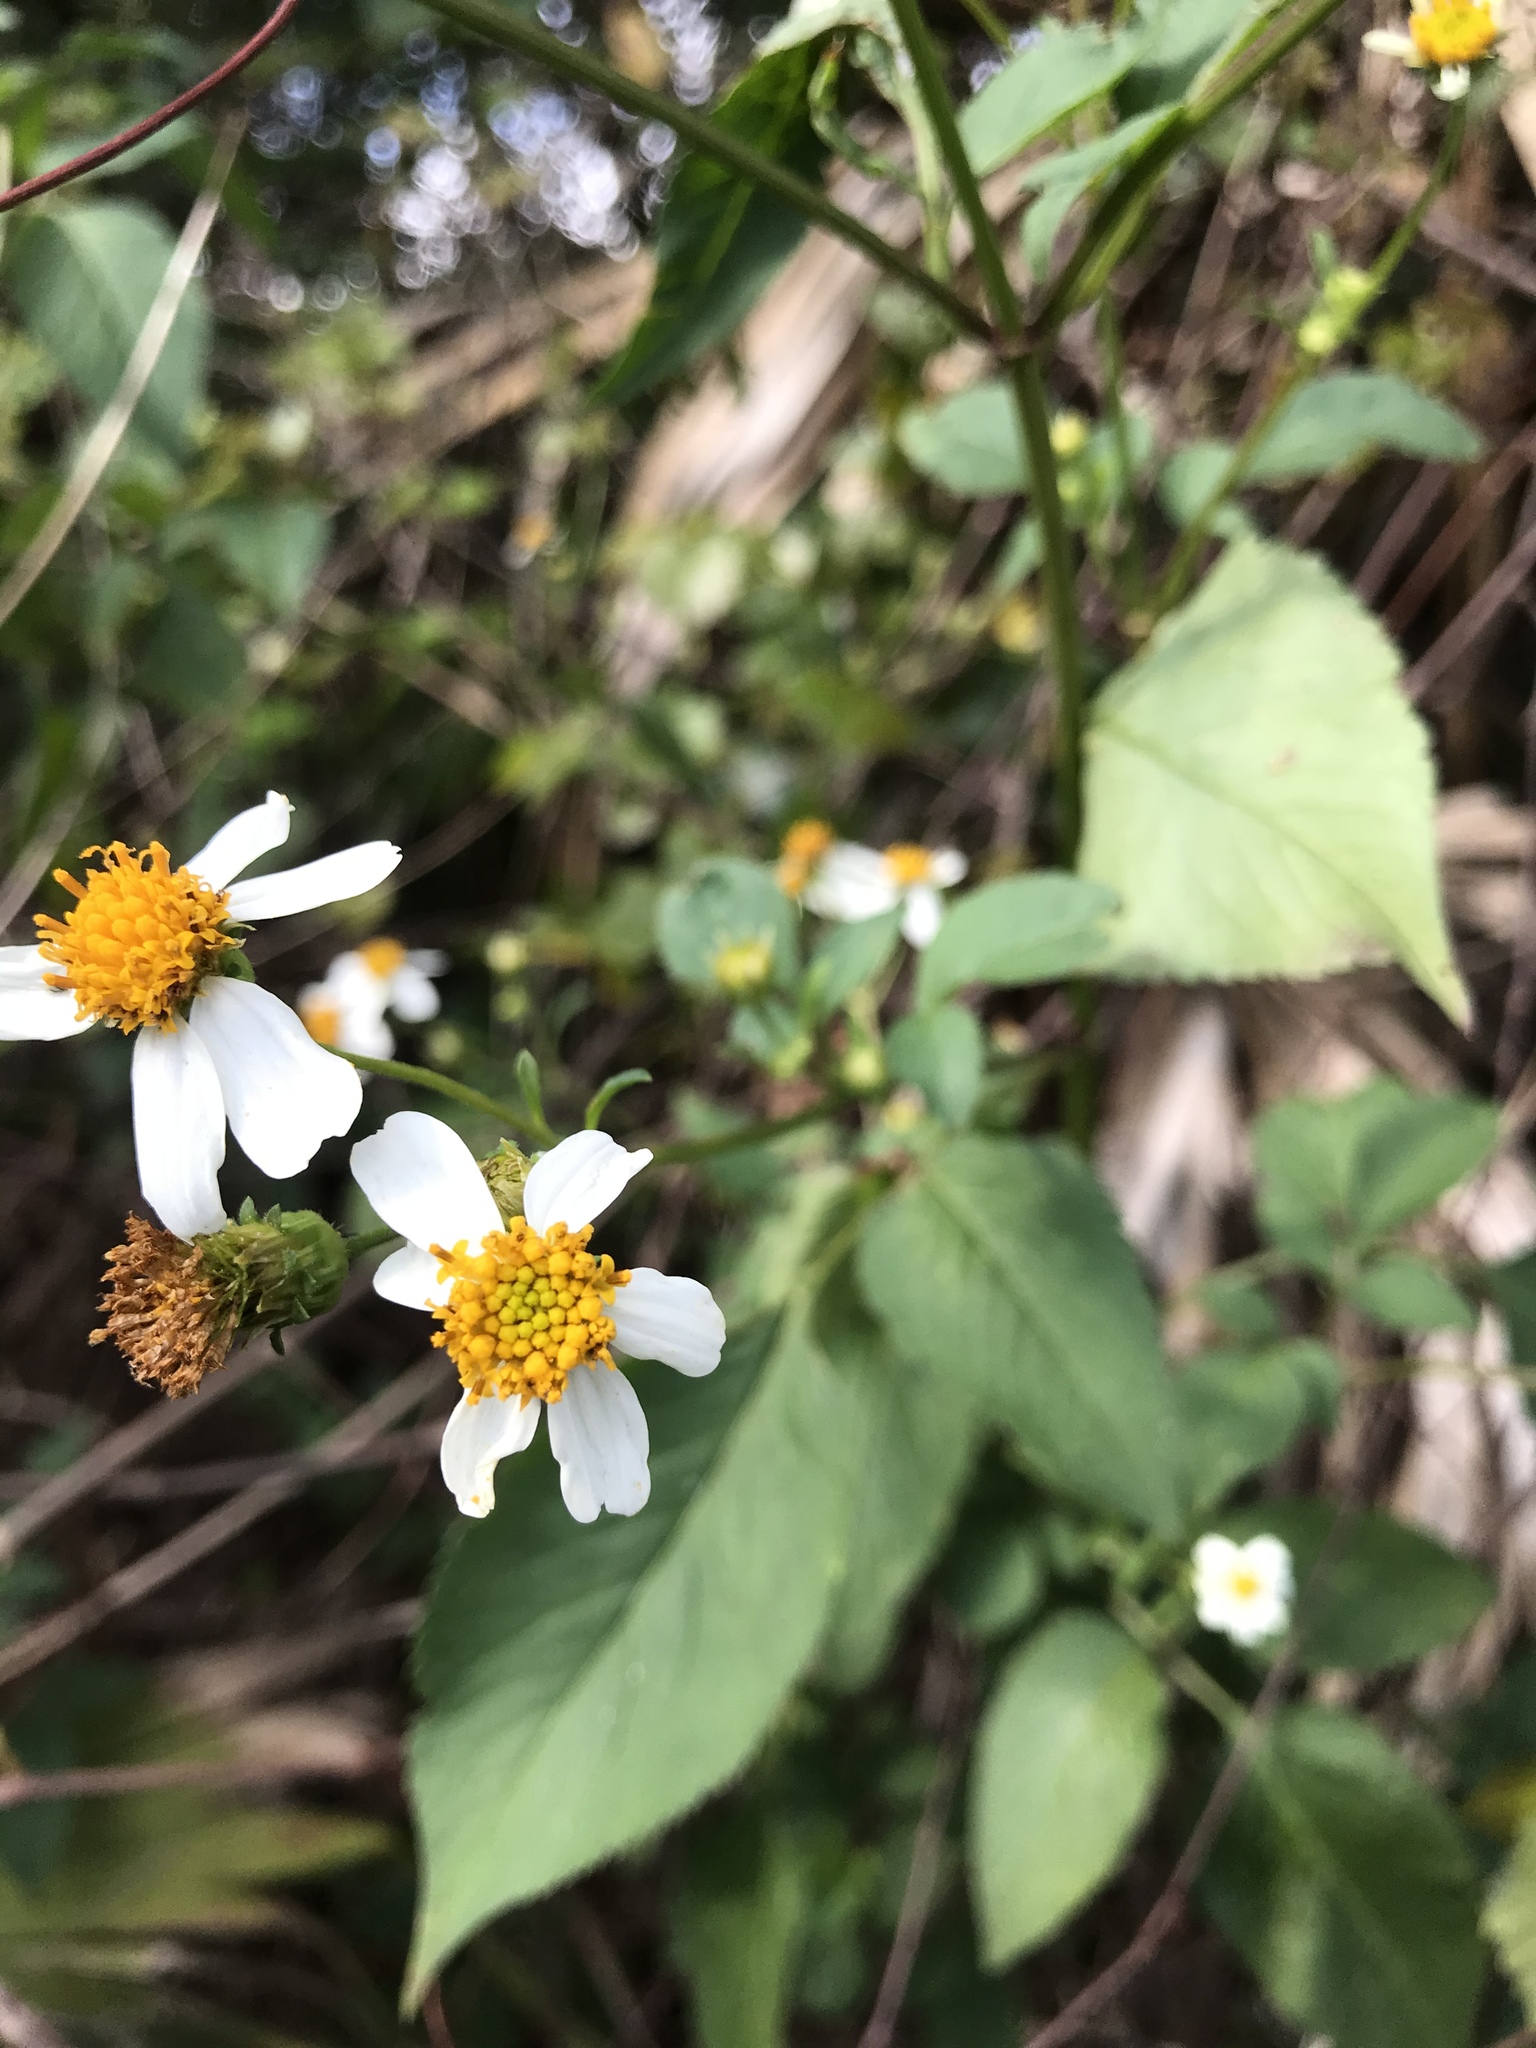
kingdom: Plantae
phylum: Tracheophyta
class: Magnoliopsida
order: Asterales
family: Asteraceae
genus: Bidens
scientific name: Bidens alba
